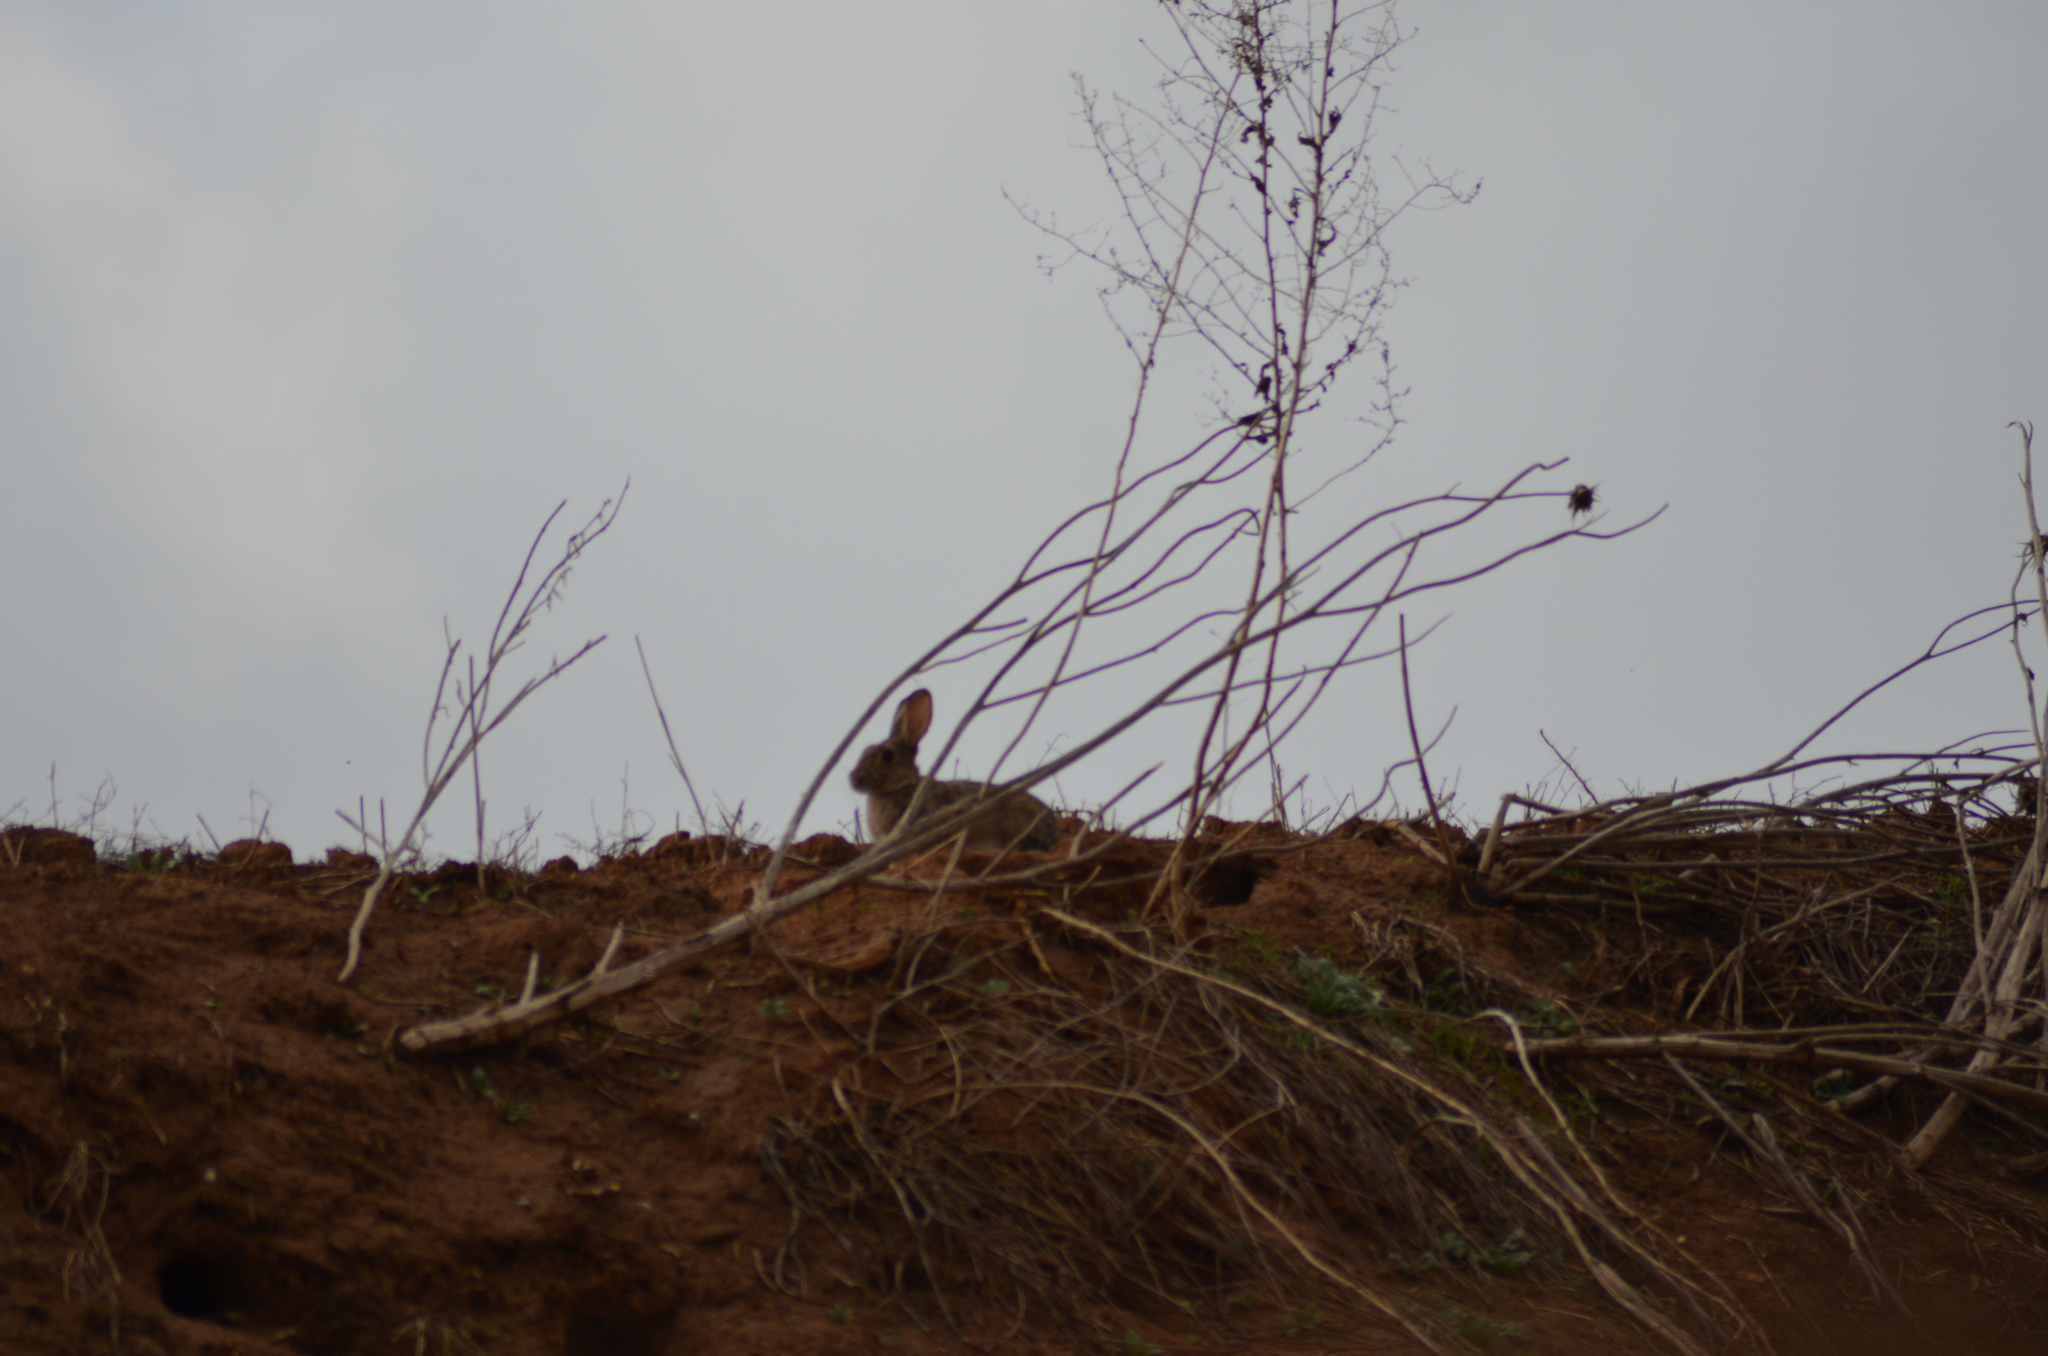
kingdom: Animalia
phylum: Chordata
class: Mammalia
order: Lagomorpha
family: Leporidae
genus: Oryctolagus
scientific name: Oryctolagus cuniculus
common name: European rabbit
